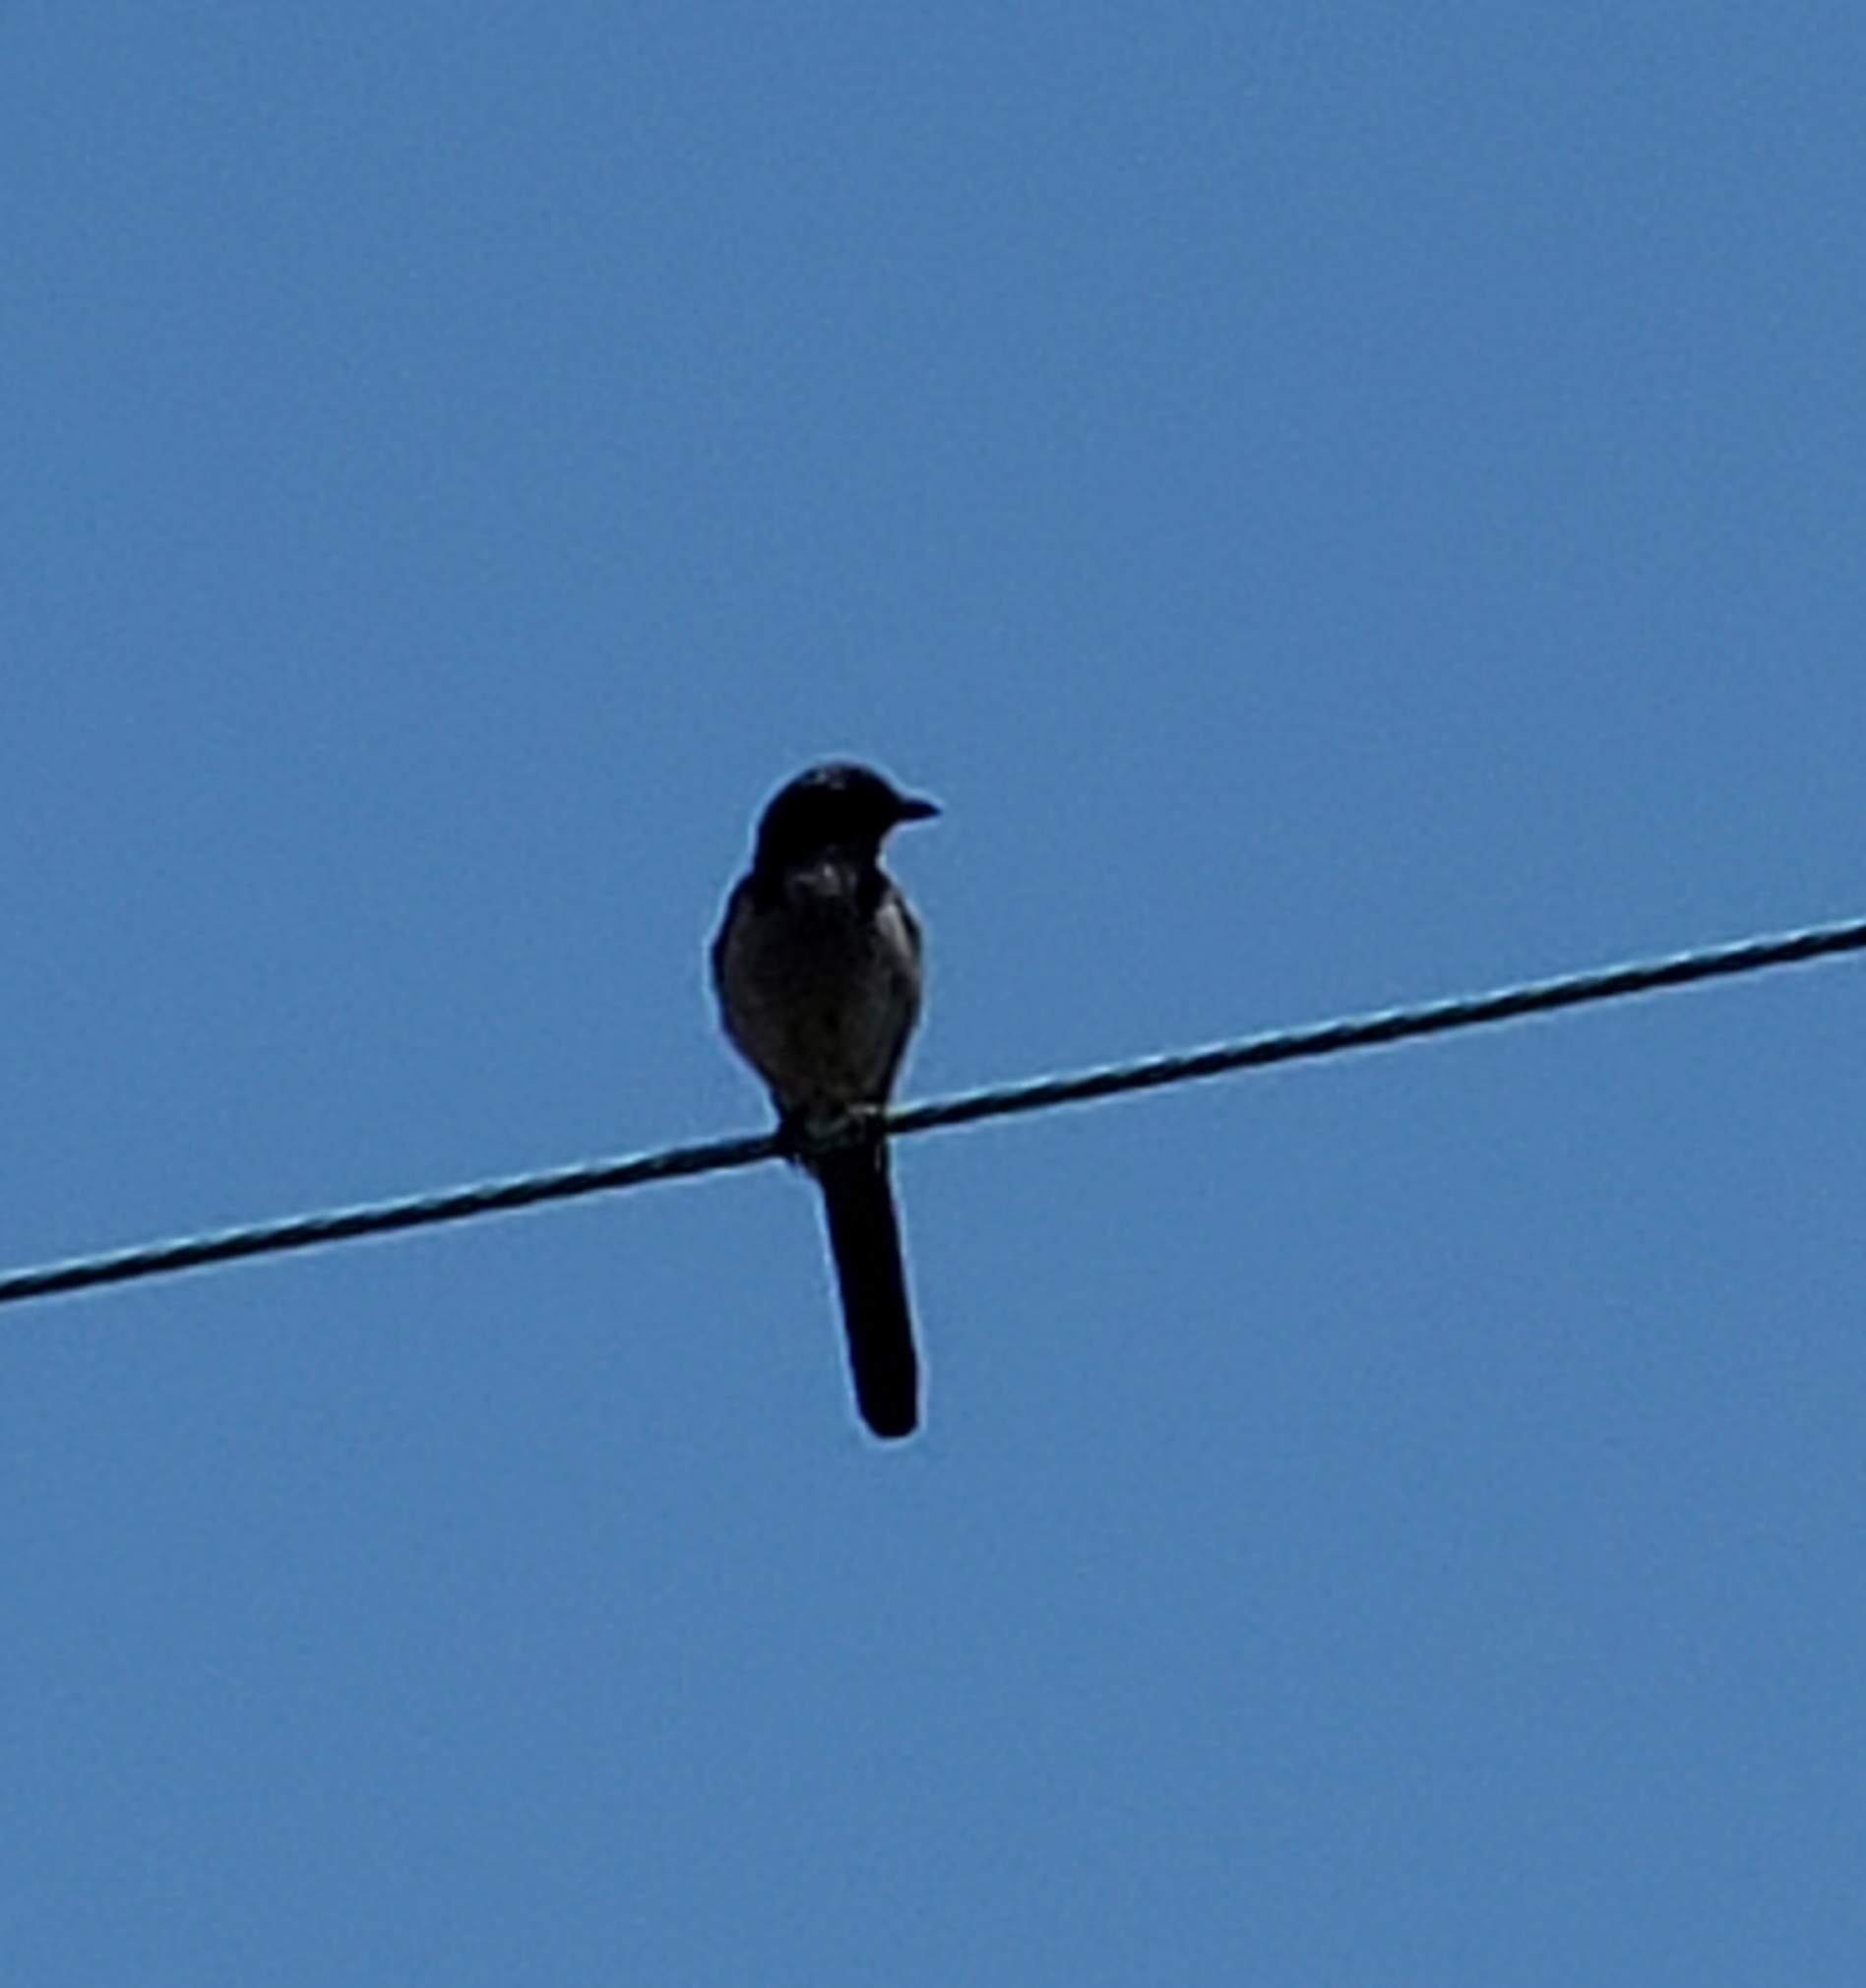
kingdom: Animalia
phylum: Chordata
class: Aves
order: Passeriformes
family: Corvidae
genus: Aphelocoma
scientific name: Aphelocoma californica
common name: California scrub-jay
